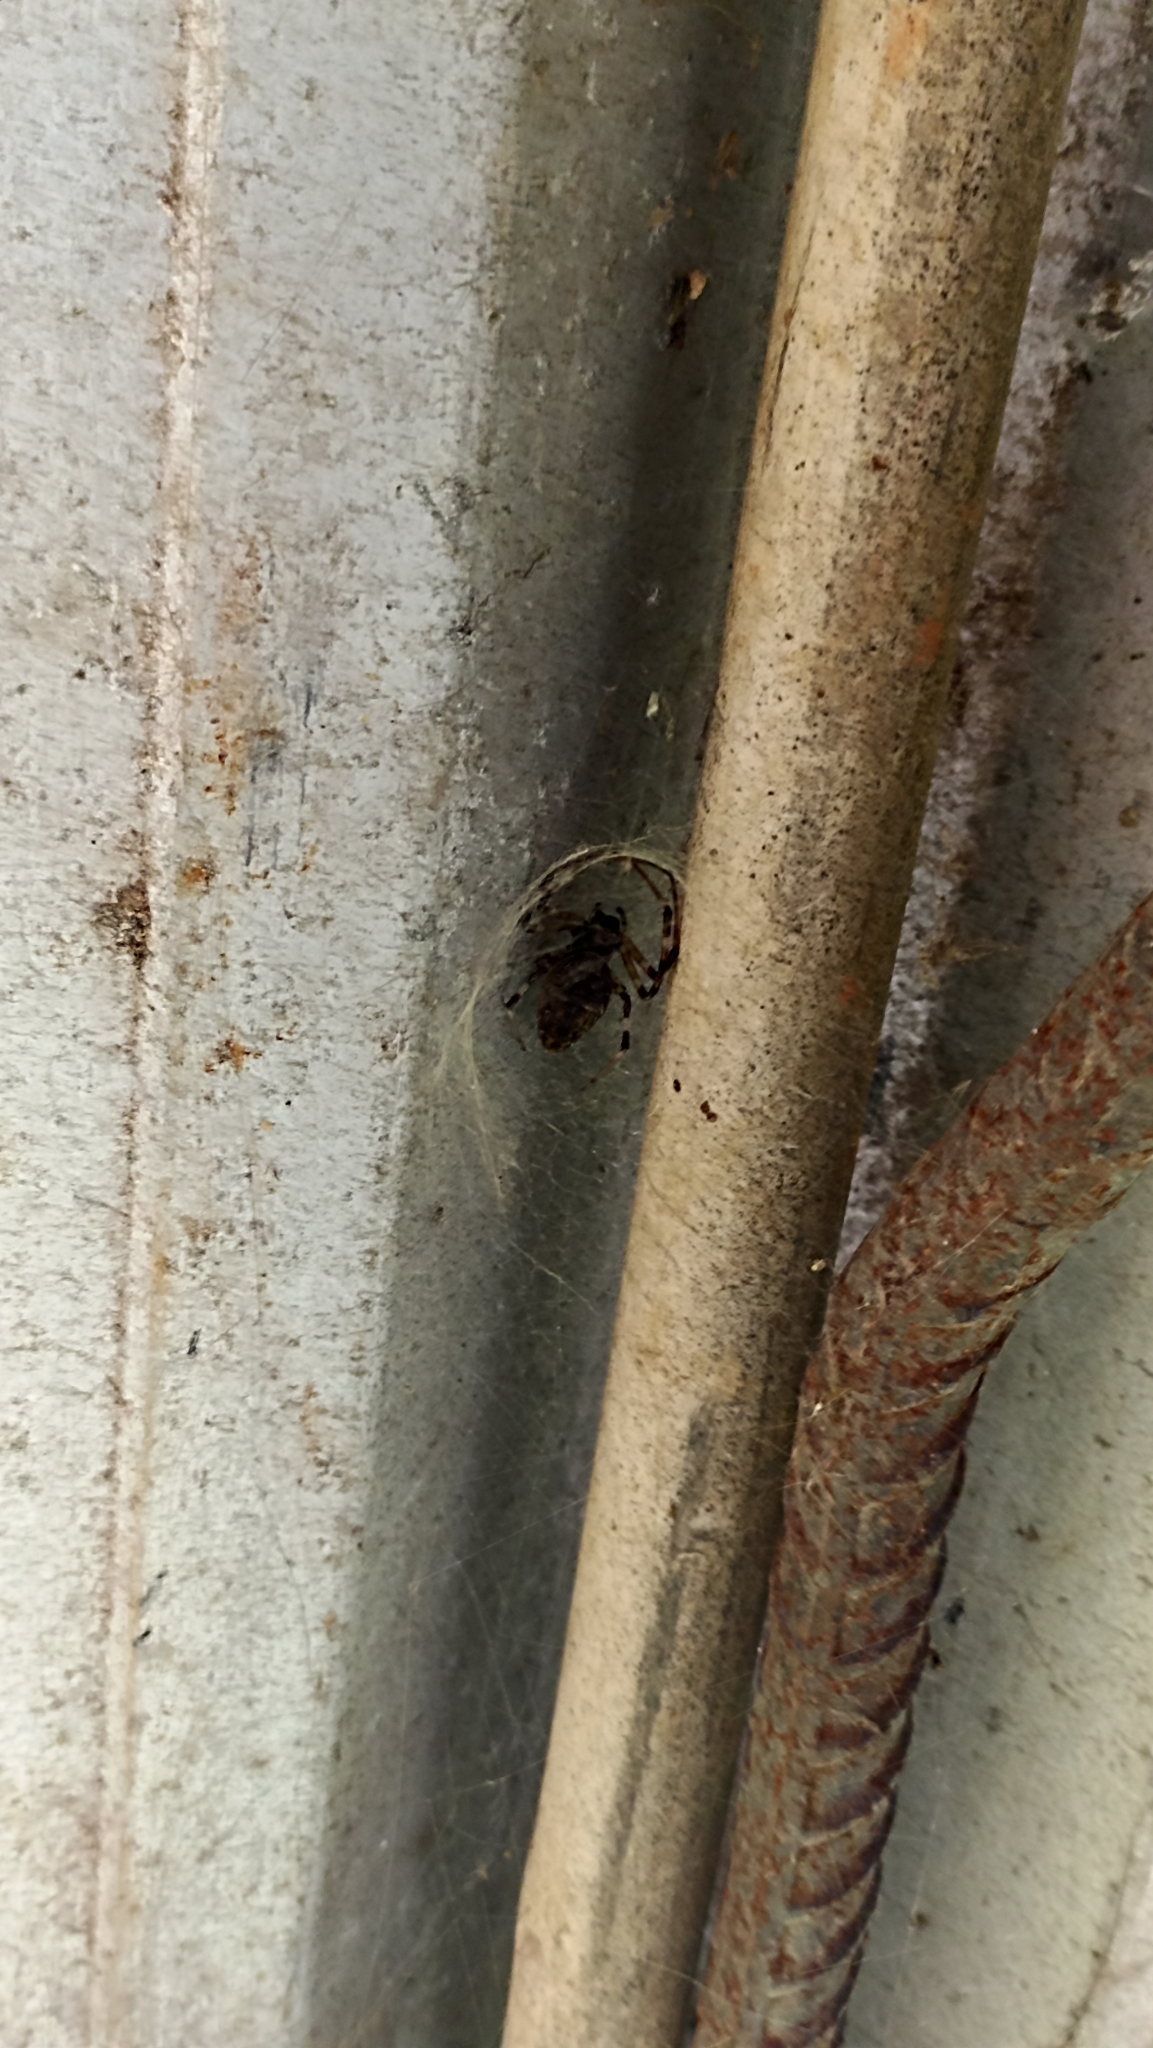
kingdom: Animalia
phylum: Arthropoda
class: Arachnida
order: Araneae
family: Araneidae
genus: Nephilingis
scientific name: Nephilingis cruentata
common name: African hermit spider
